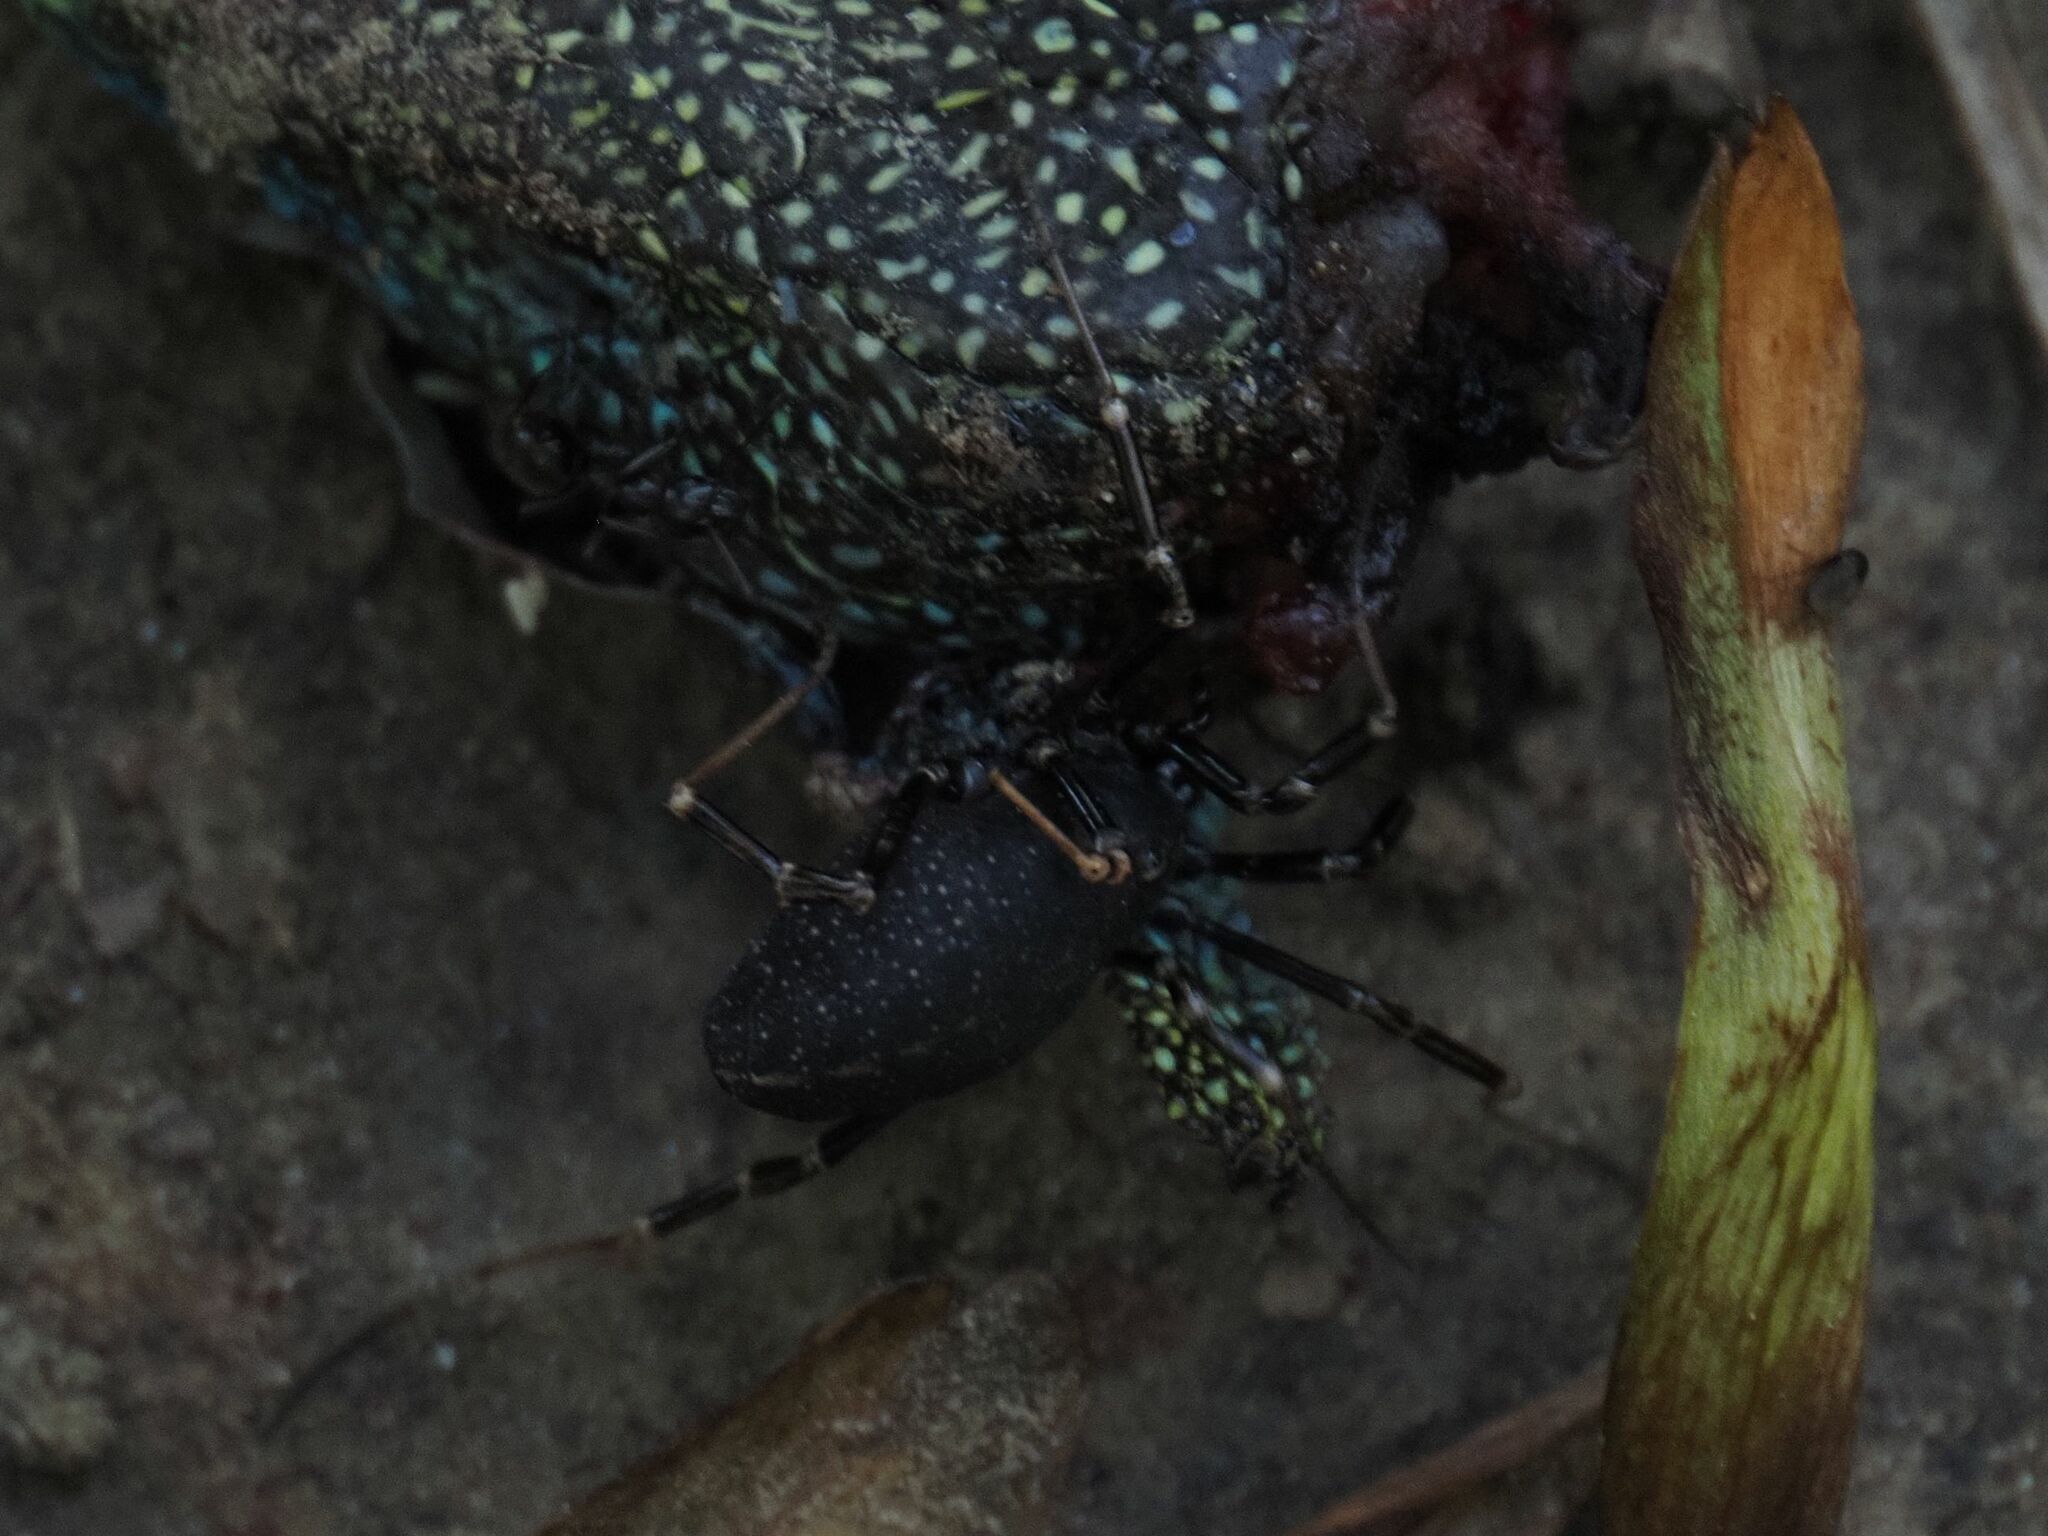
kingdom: Animalia
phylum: Arthropoda
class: Arachnida
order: Opiliones
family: Phalangiidae
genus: Egaenus
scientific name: Egaenus convexus
